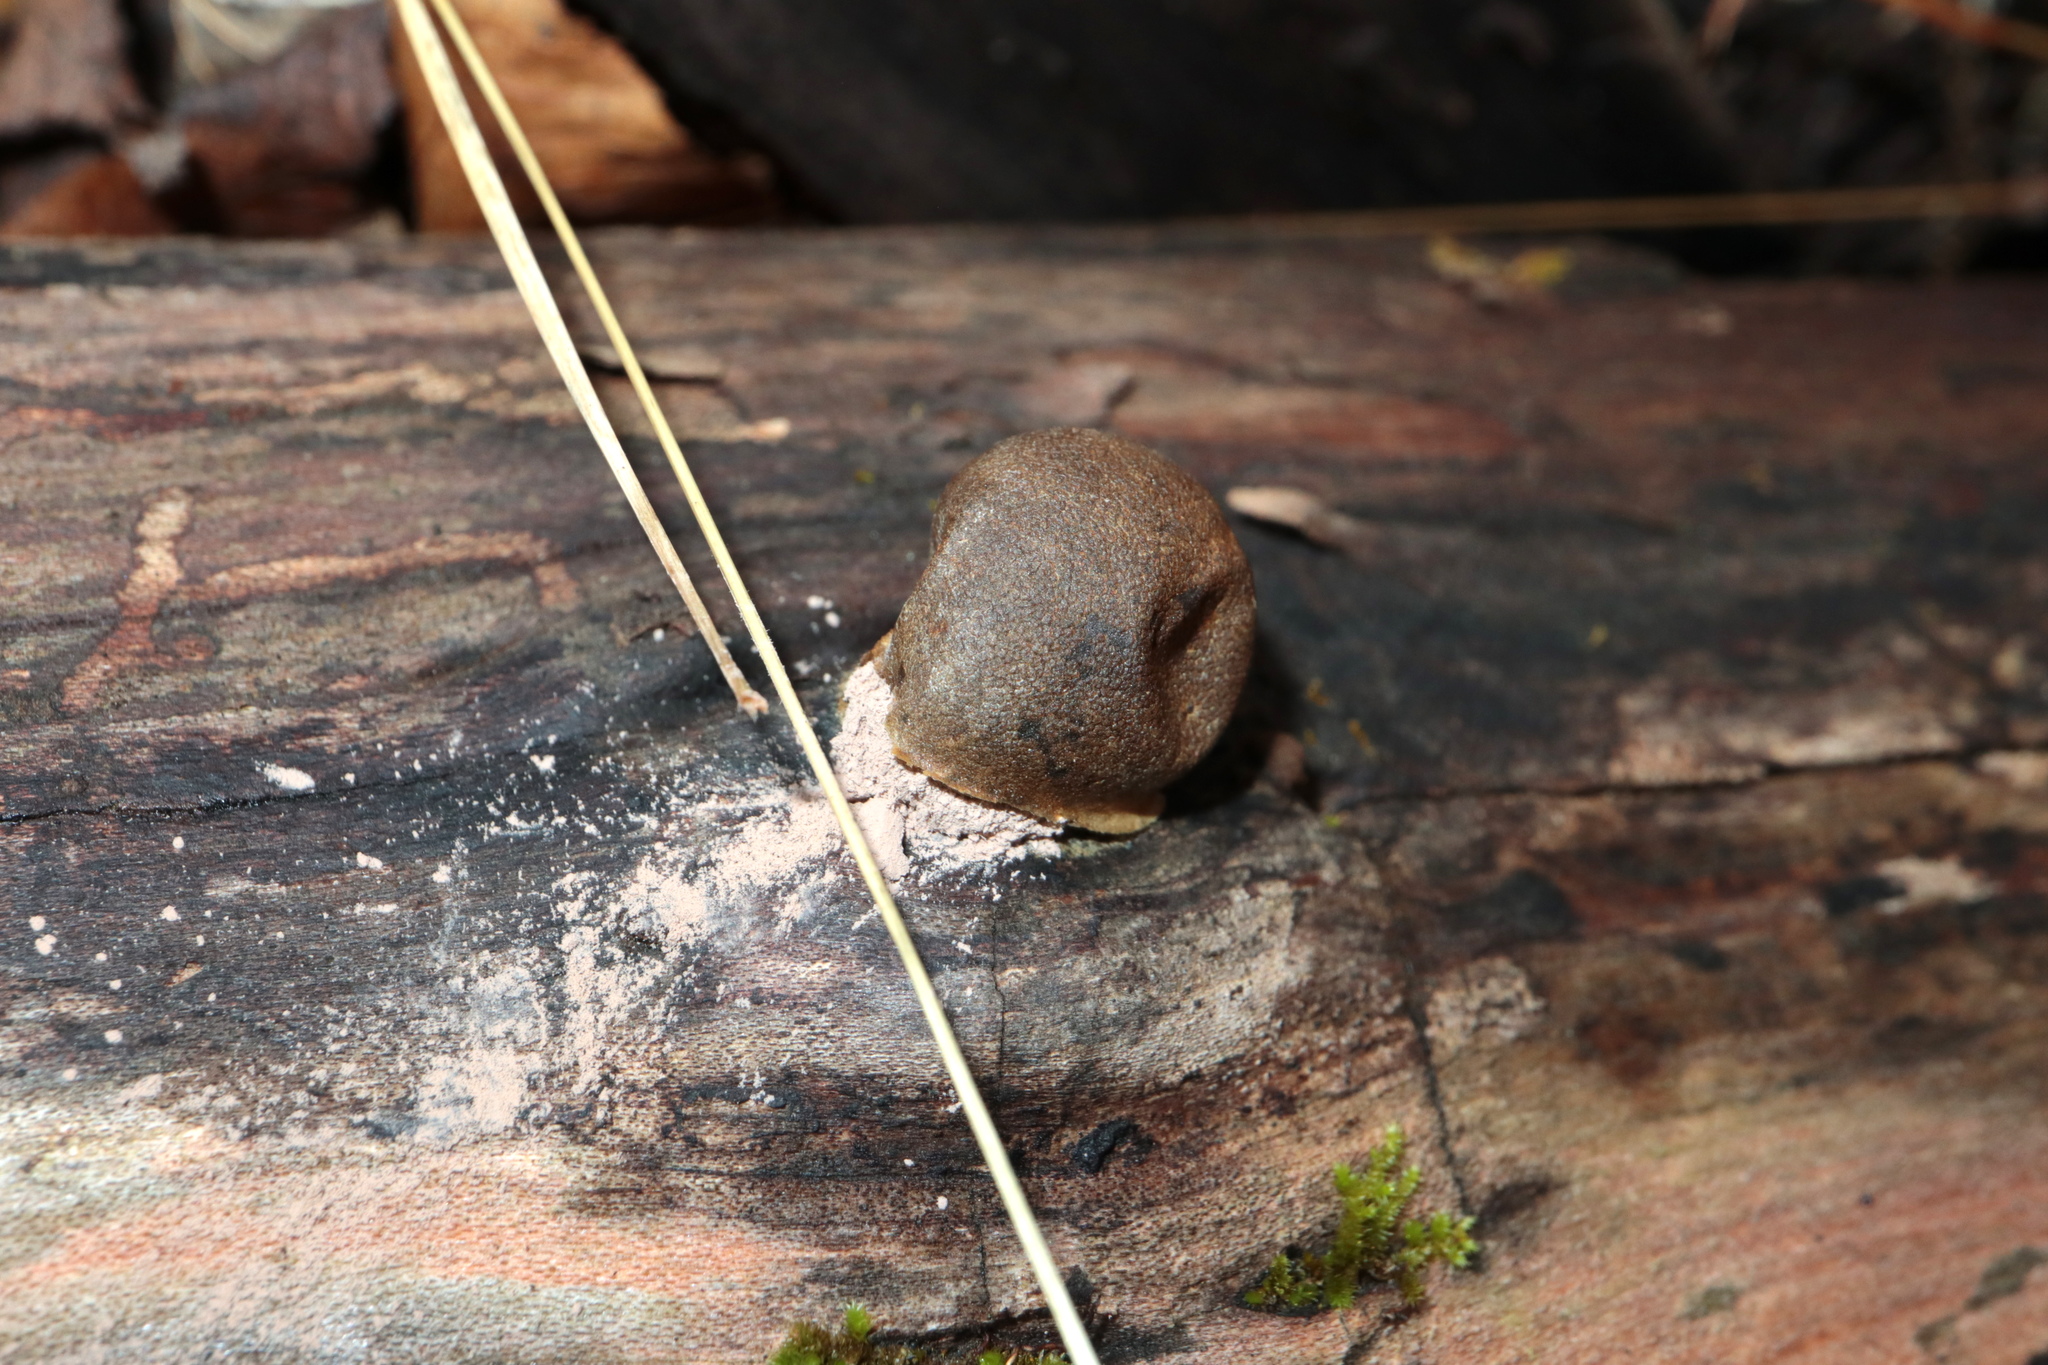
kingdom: Protozoa
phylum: Mycetozoa
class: Myxomycetes
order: Cribrariales
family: Tubiferaceae
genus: Reticularia
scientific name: Reticularia lycoperdon
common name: False puffball
